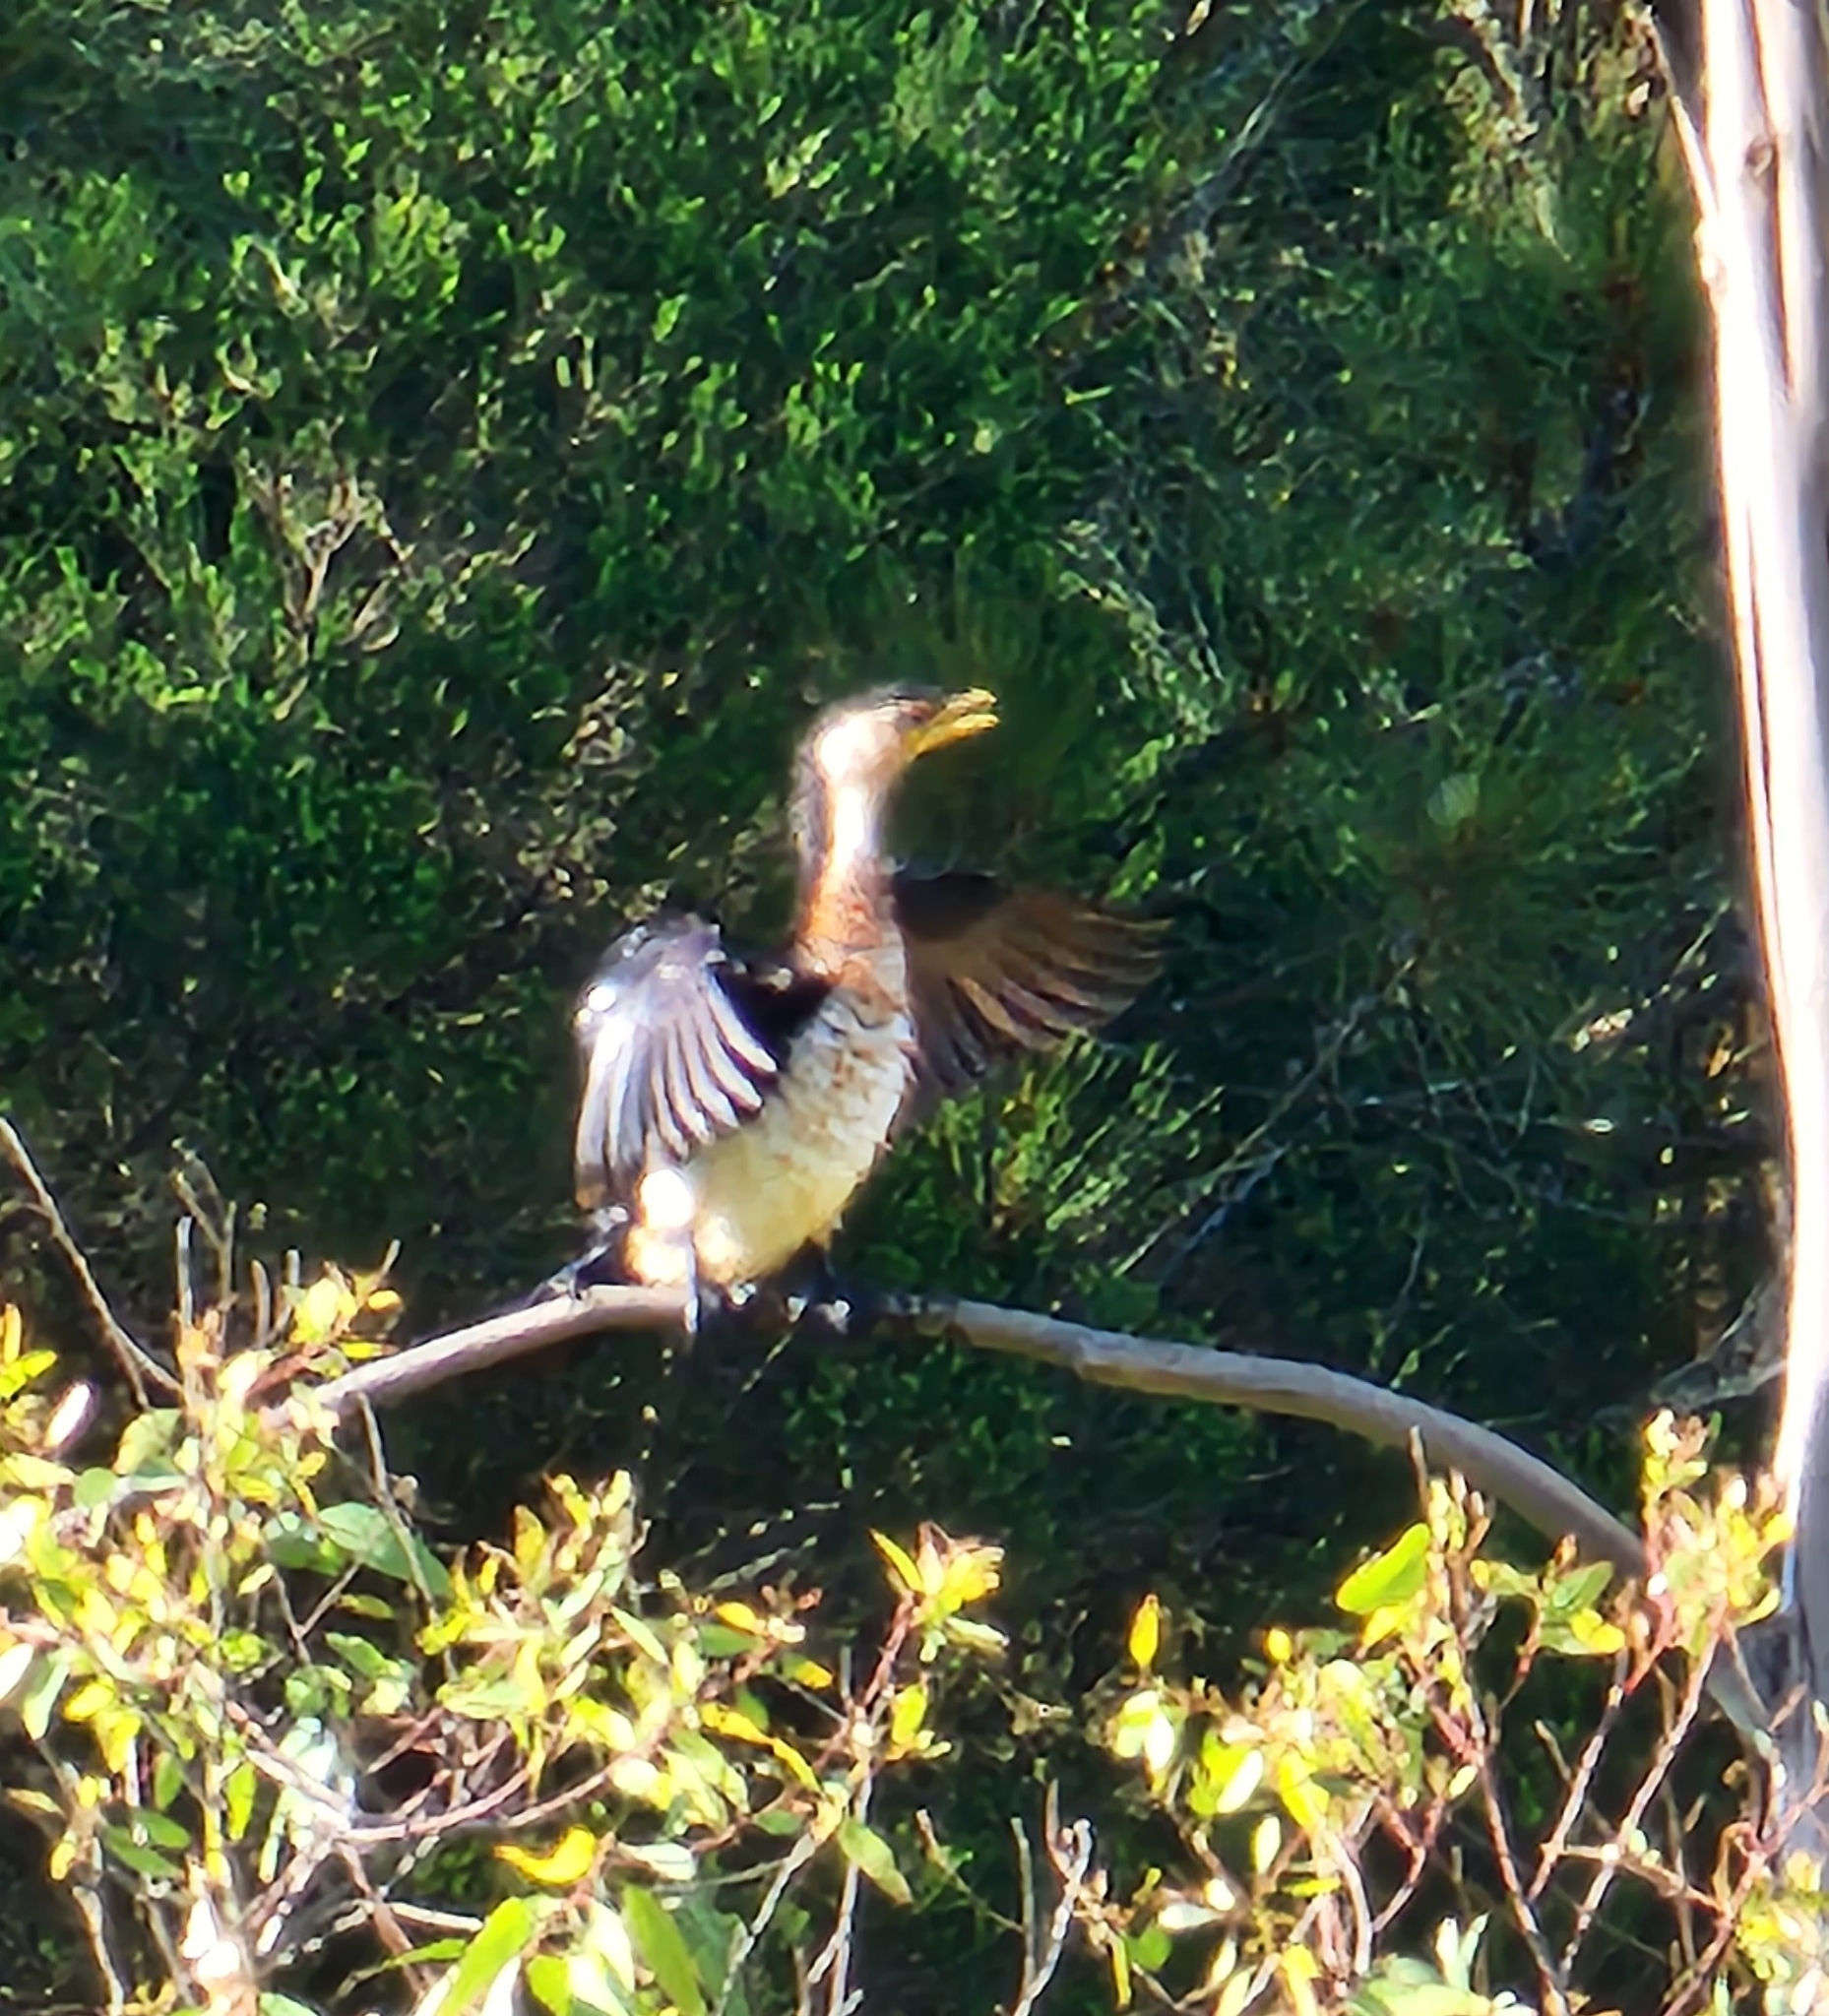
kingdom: Animalia
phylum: Chordata
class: Aves
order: Suliformes
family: Phalacrocoracidae
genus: Microcarbo
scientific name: Microcarbo melanoleucos
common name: Little pied cormorant
